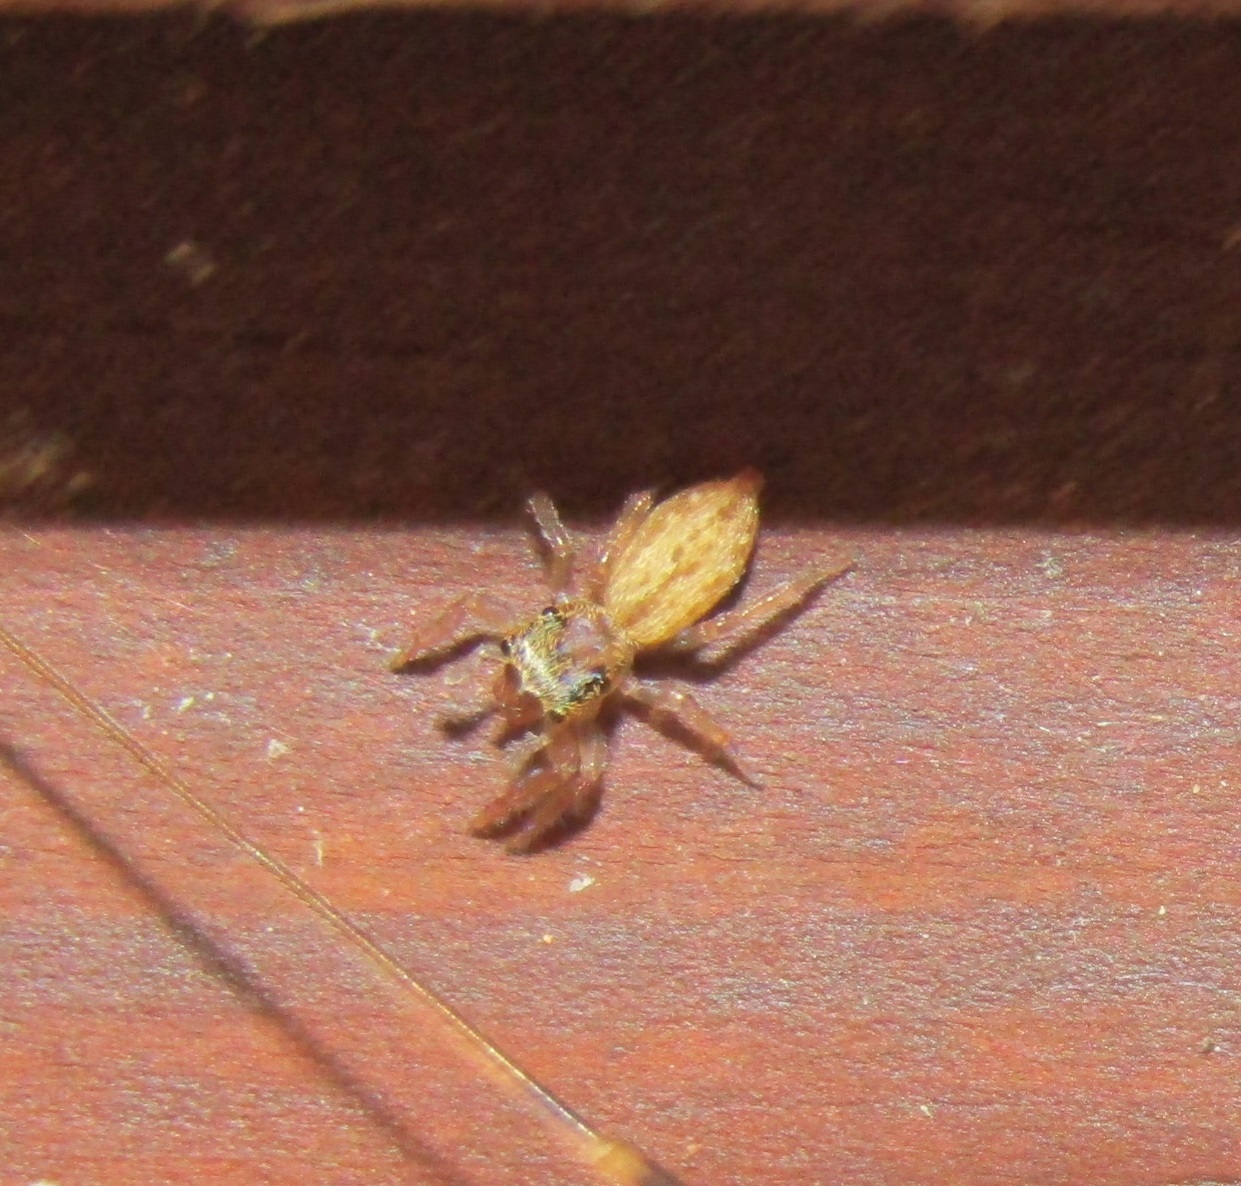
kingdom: Animalia
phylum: Arthropoda
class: Arachnida
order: Araneae
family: Salticidae
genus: Trite
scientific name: Trite auricoma
